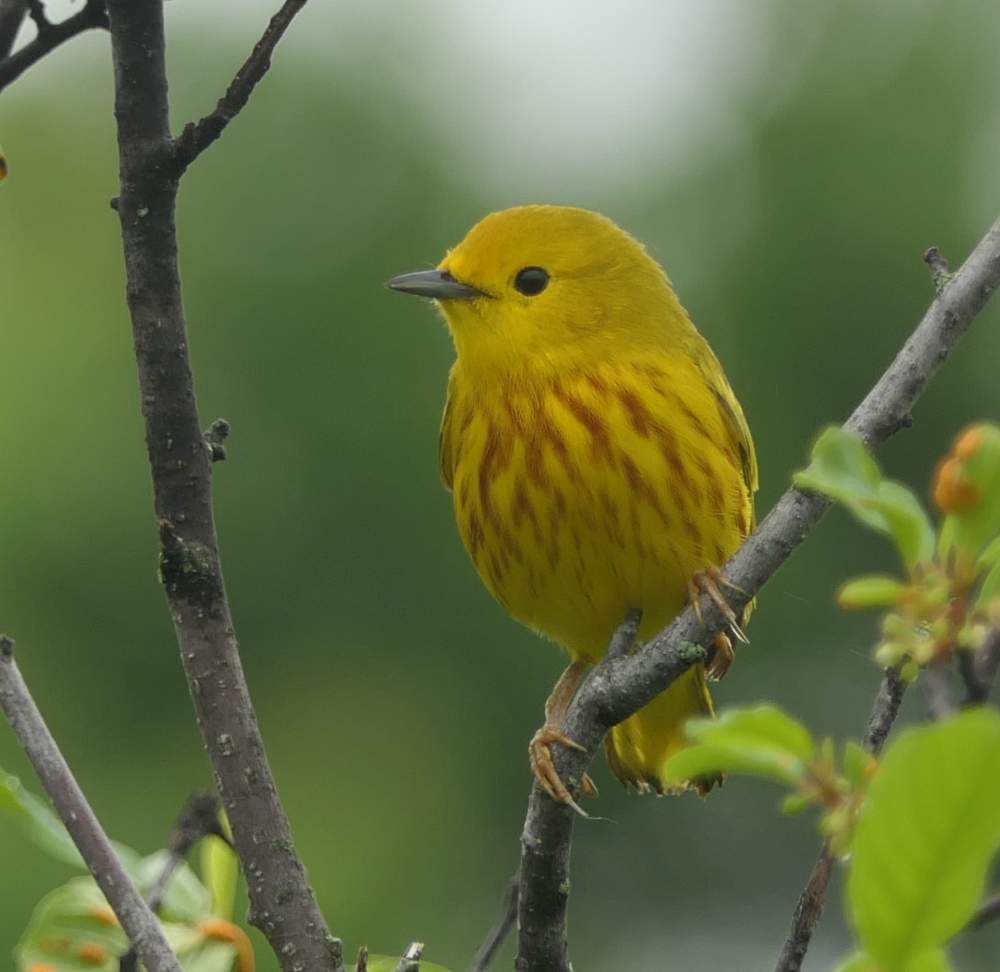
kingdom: Animalia
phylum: Chordata
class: Aves
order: Passeriformes
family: Parulidae
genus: Setophaga
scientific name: Setophaga petechia
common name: Yellow warbler
